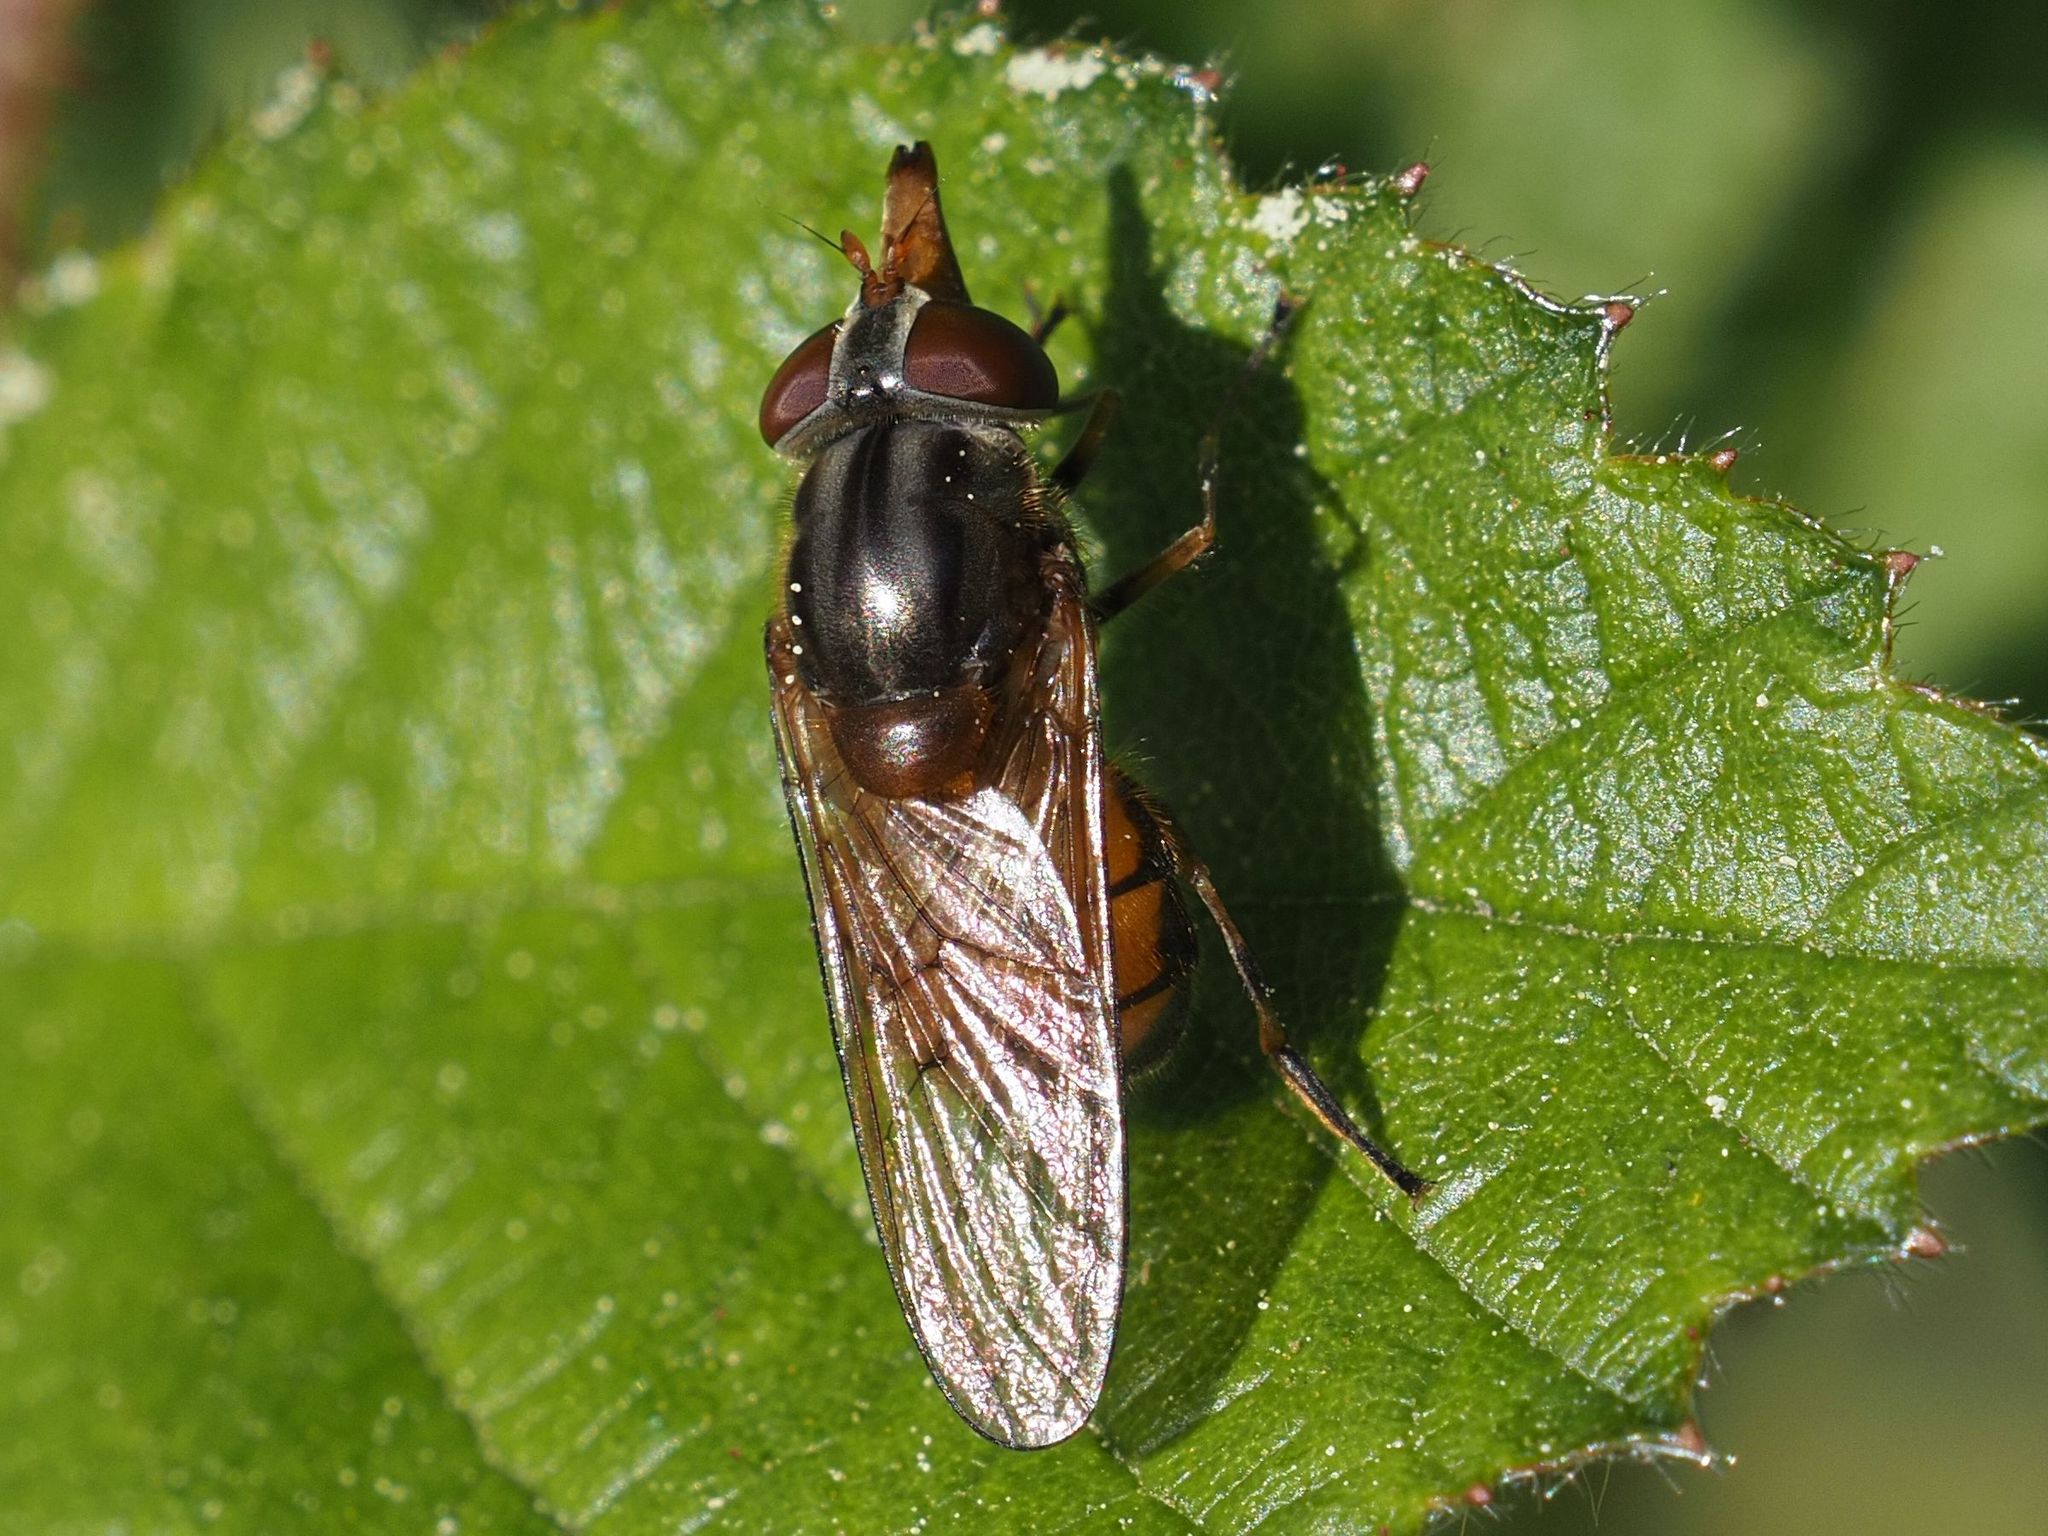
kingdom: Animalia
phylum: Arthropoda
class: Insecta
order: Diptera
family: Syrphidae
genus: Rhingia
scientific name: Rhingia campestris
